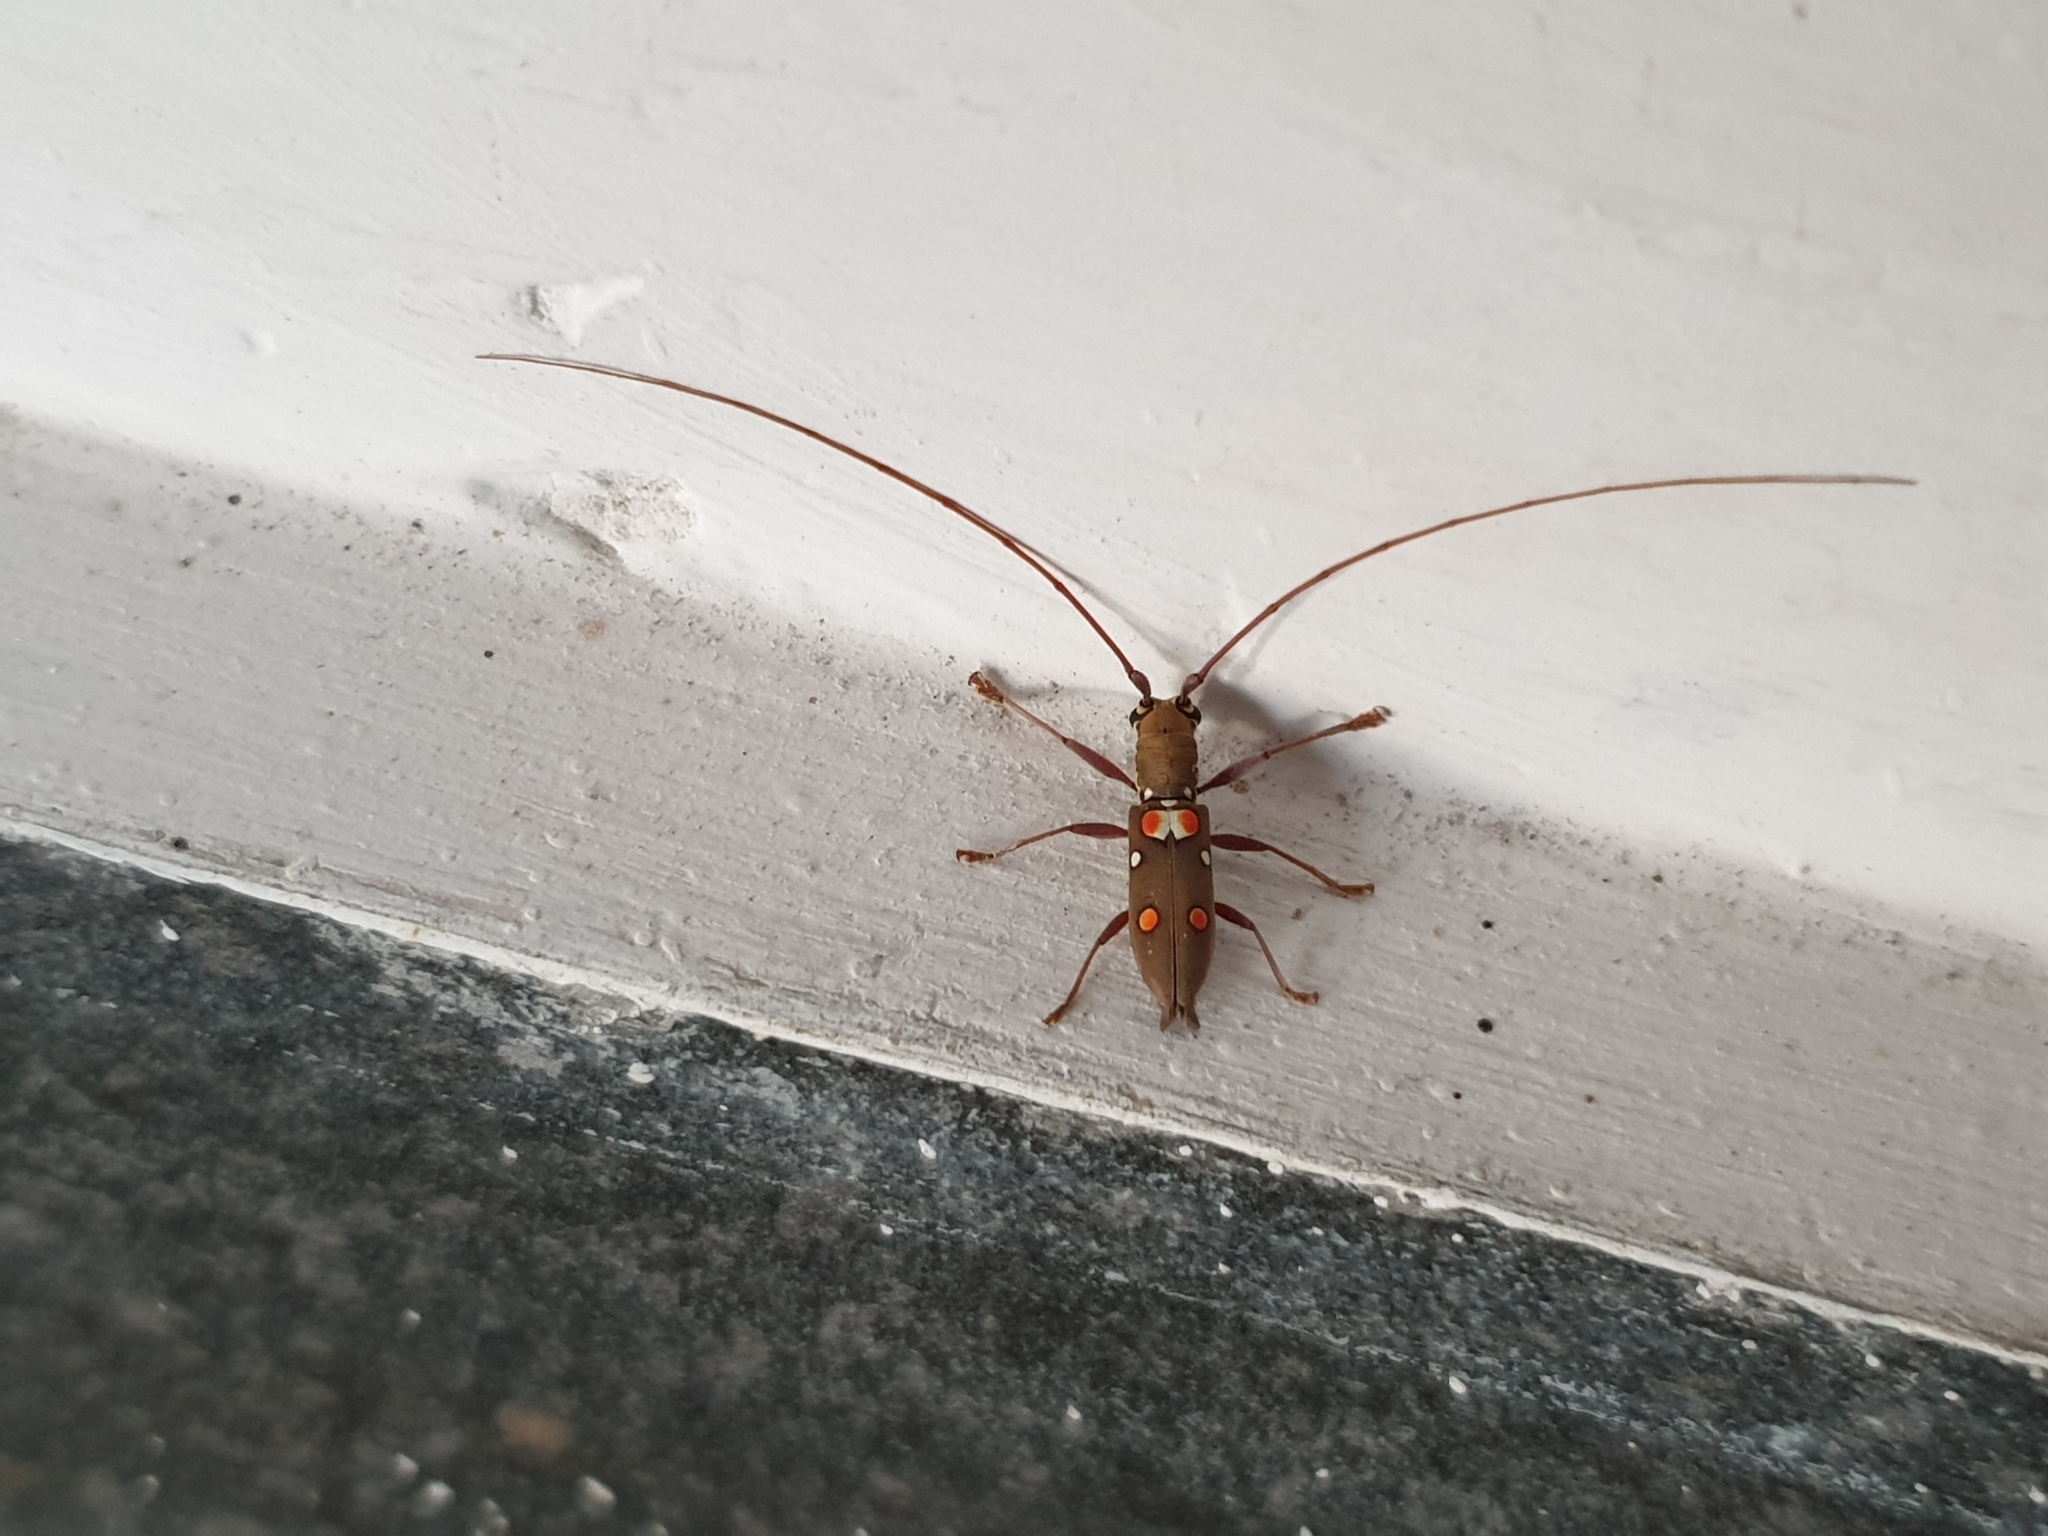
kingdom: Animalia
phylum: Arthropoda
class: Insecta
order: Coleoptera
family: Cerambycidae
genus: Olenecamptus
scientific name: Olenecamptus bilobus
